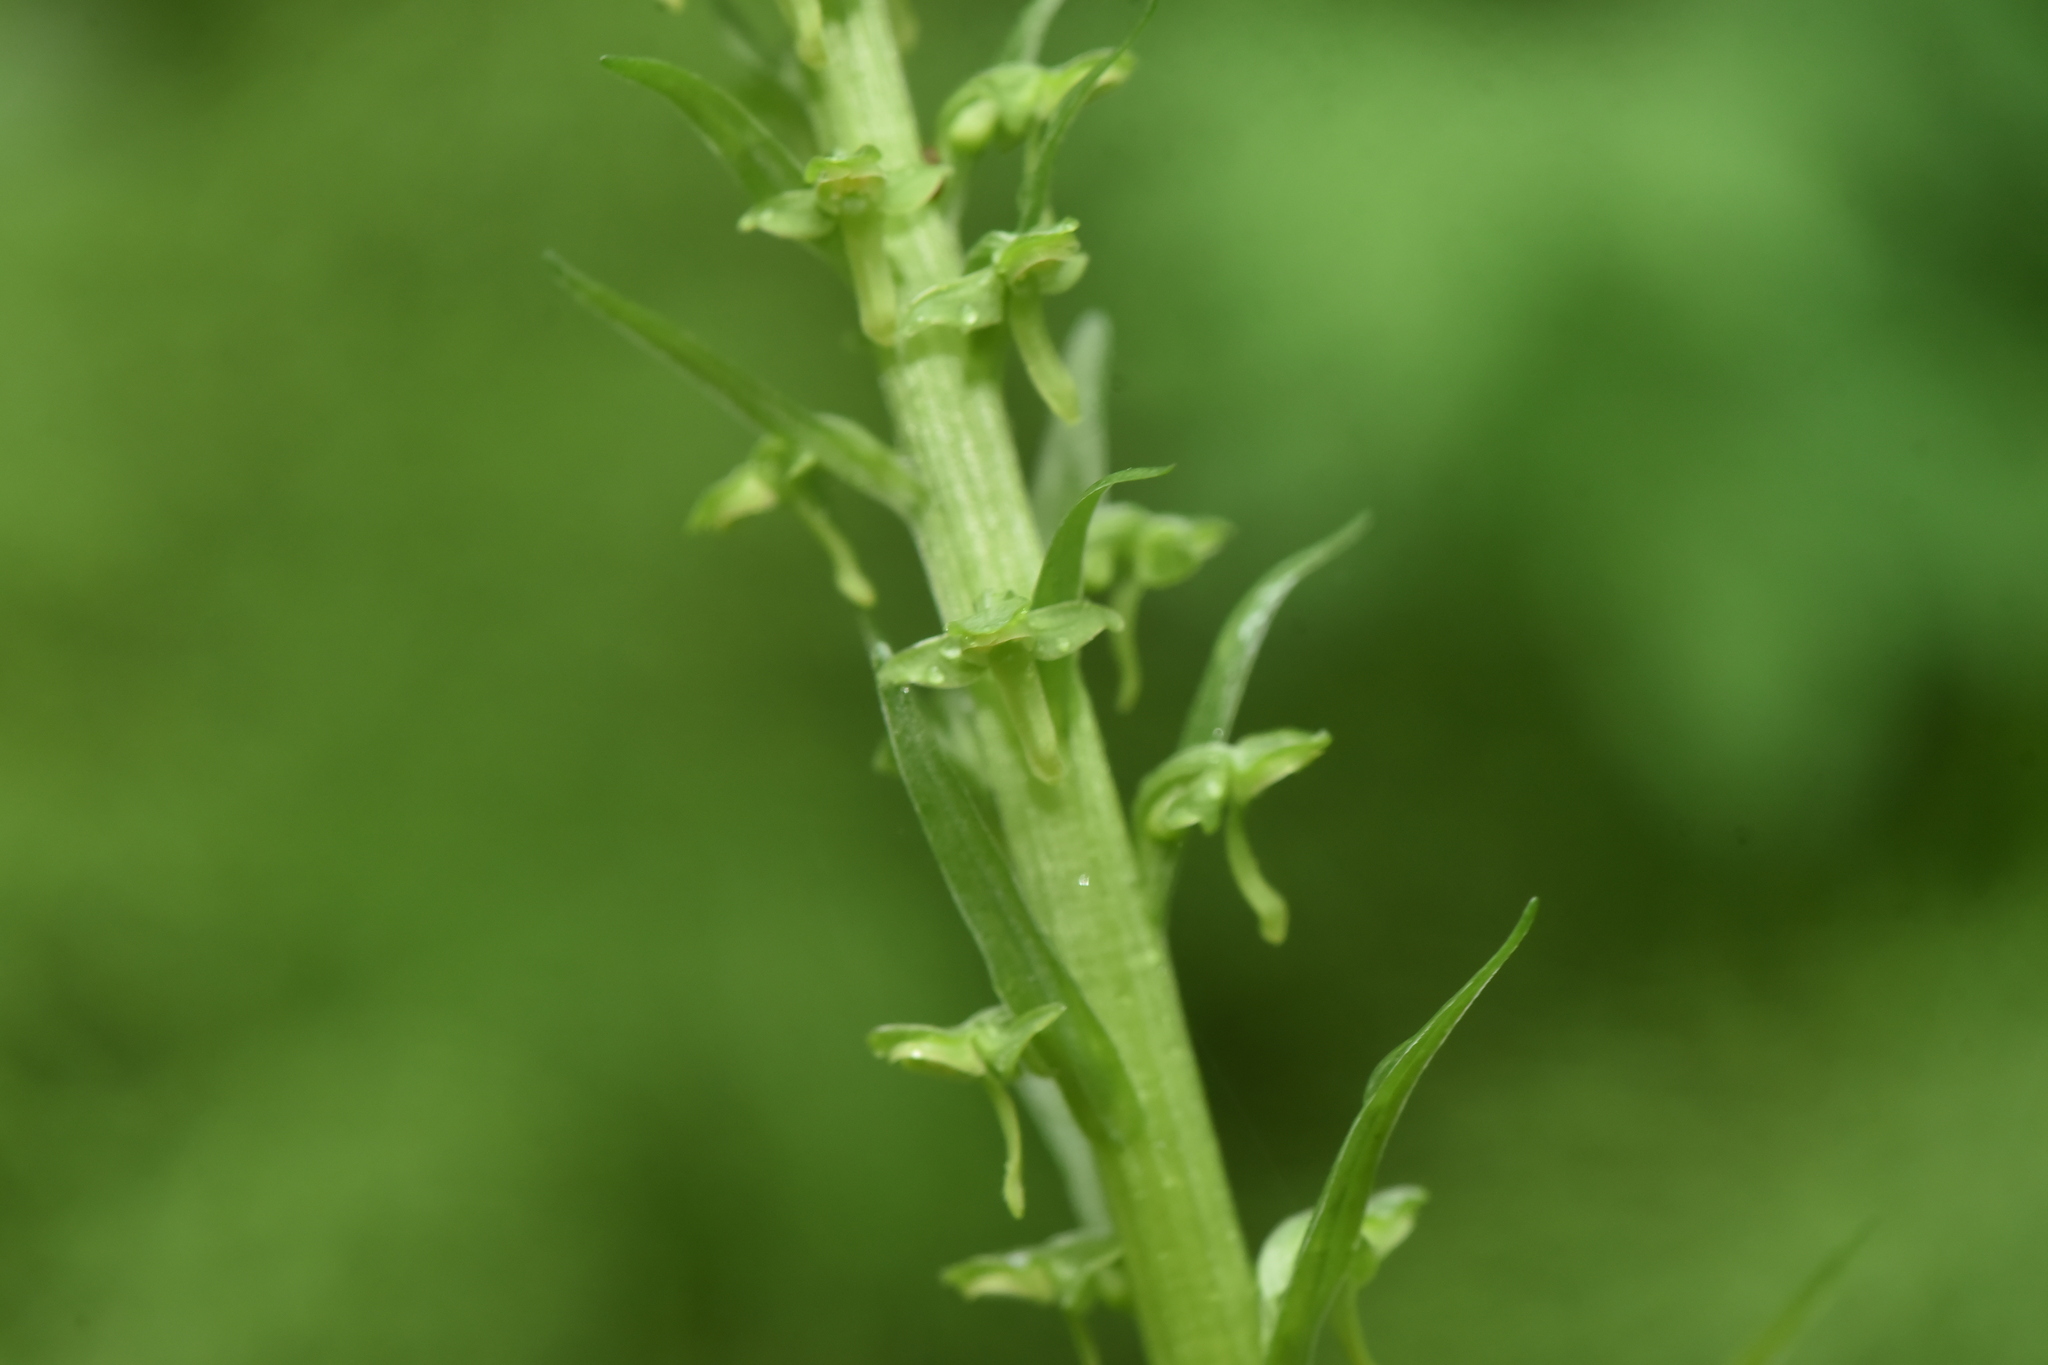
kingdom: Plantae
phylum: Tracheophyta
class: Liliopsida
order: Asparagales
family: Orchidaceae
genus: Platanthera
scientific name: Platanthera stricta
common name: Slender bog orchid
